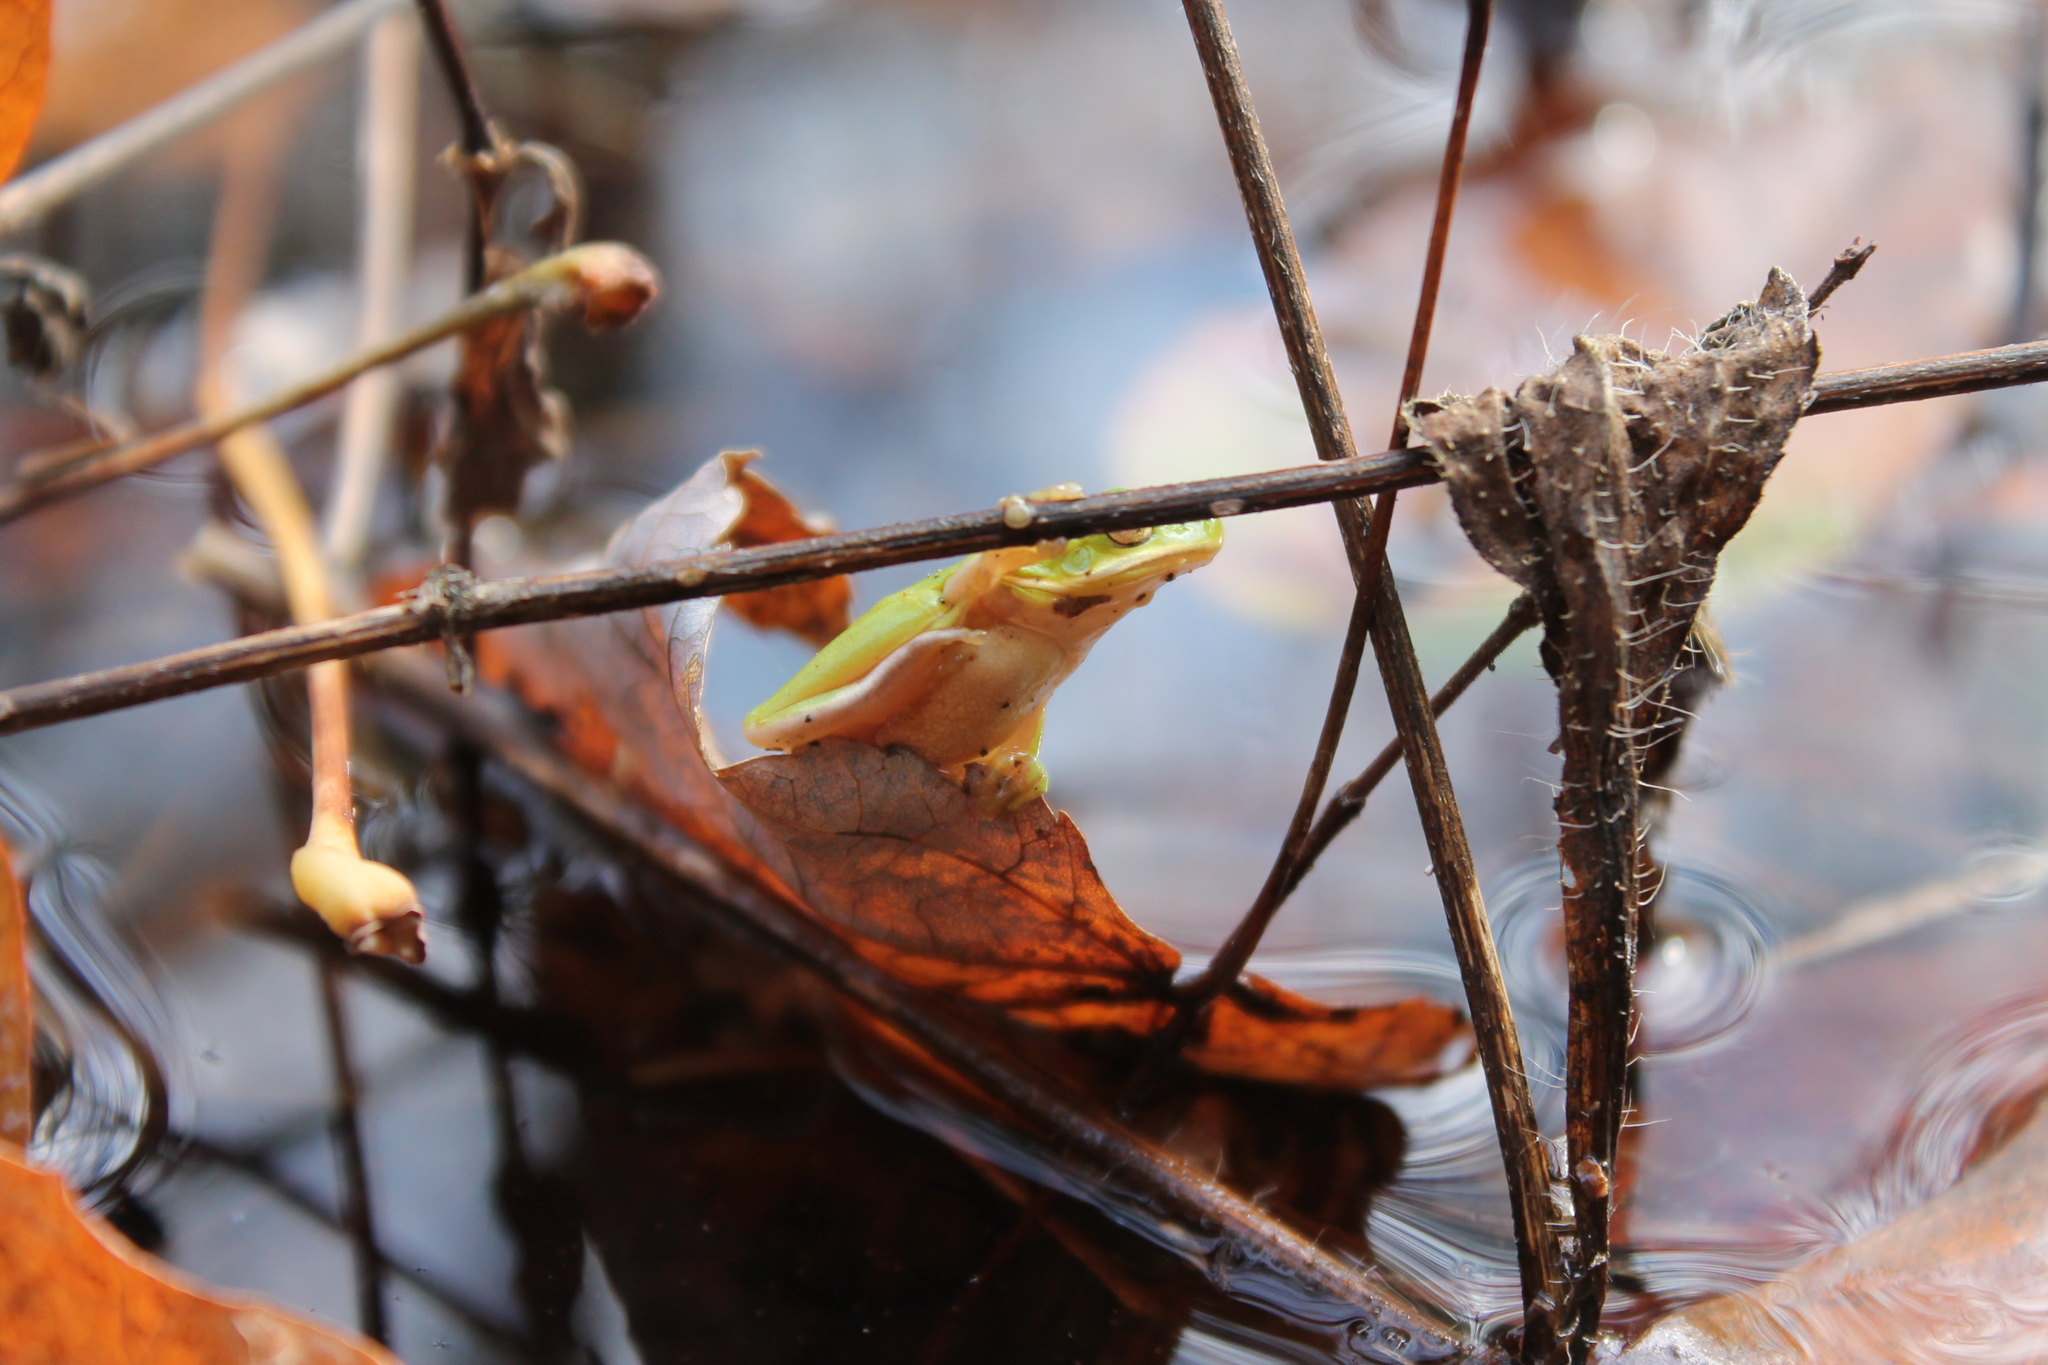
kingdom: Animalia
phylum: Chordata
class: Amphibia
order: Anura
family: Hylidae
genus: Dryophytes
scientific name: Dryophytes cinereus
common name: Green treefrog
